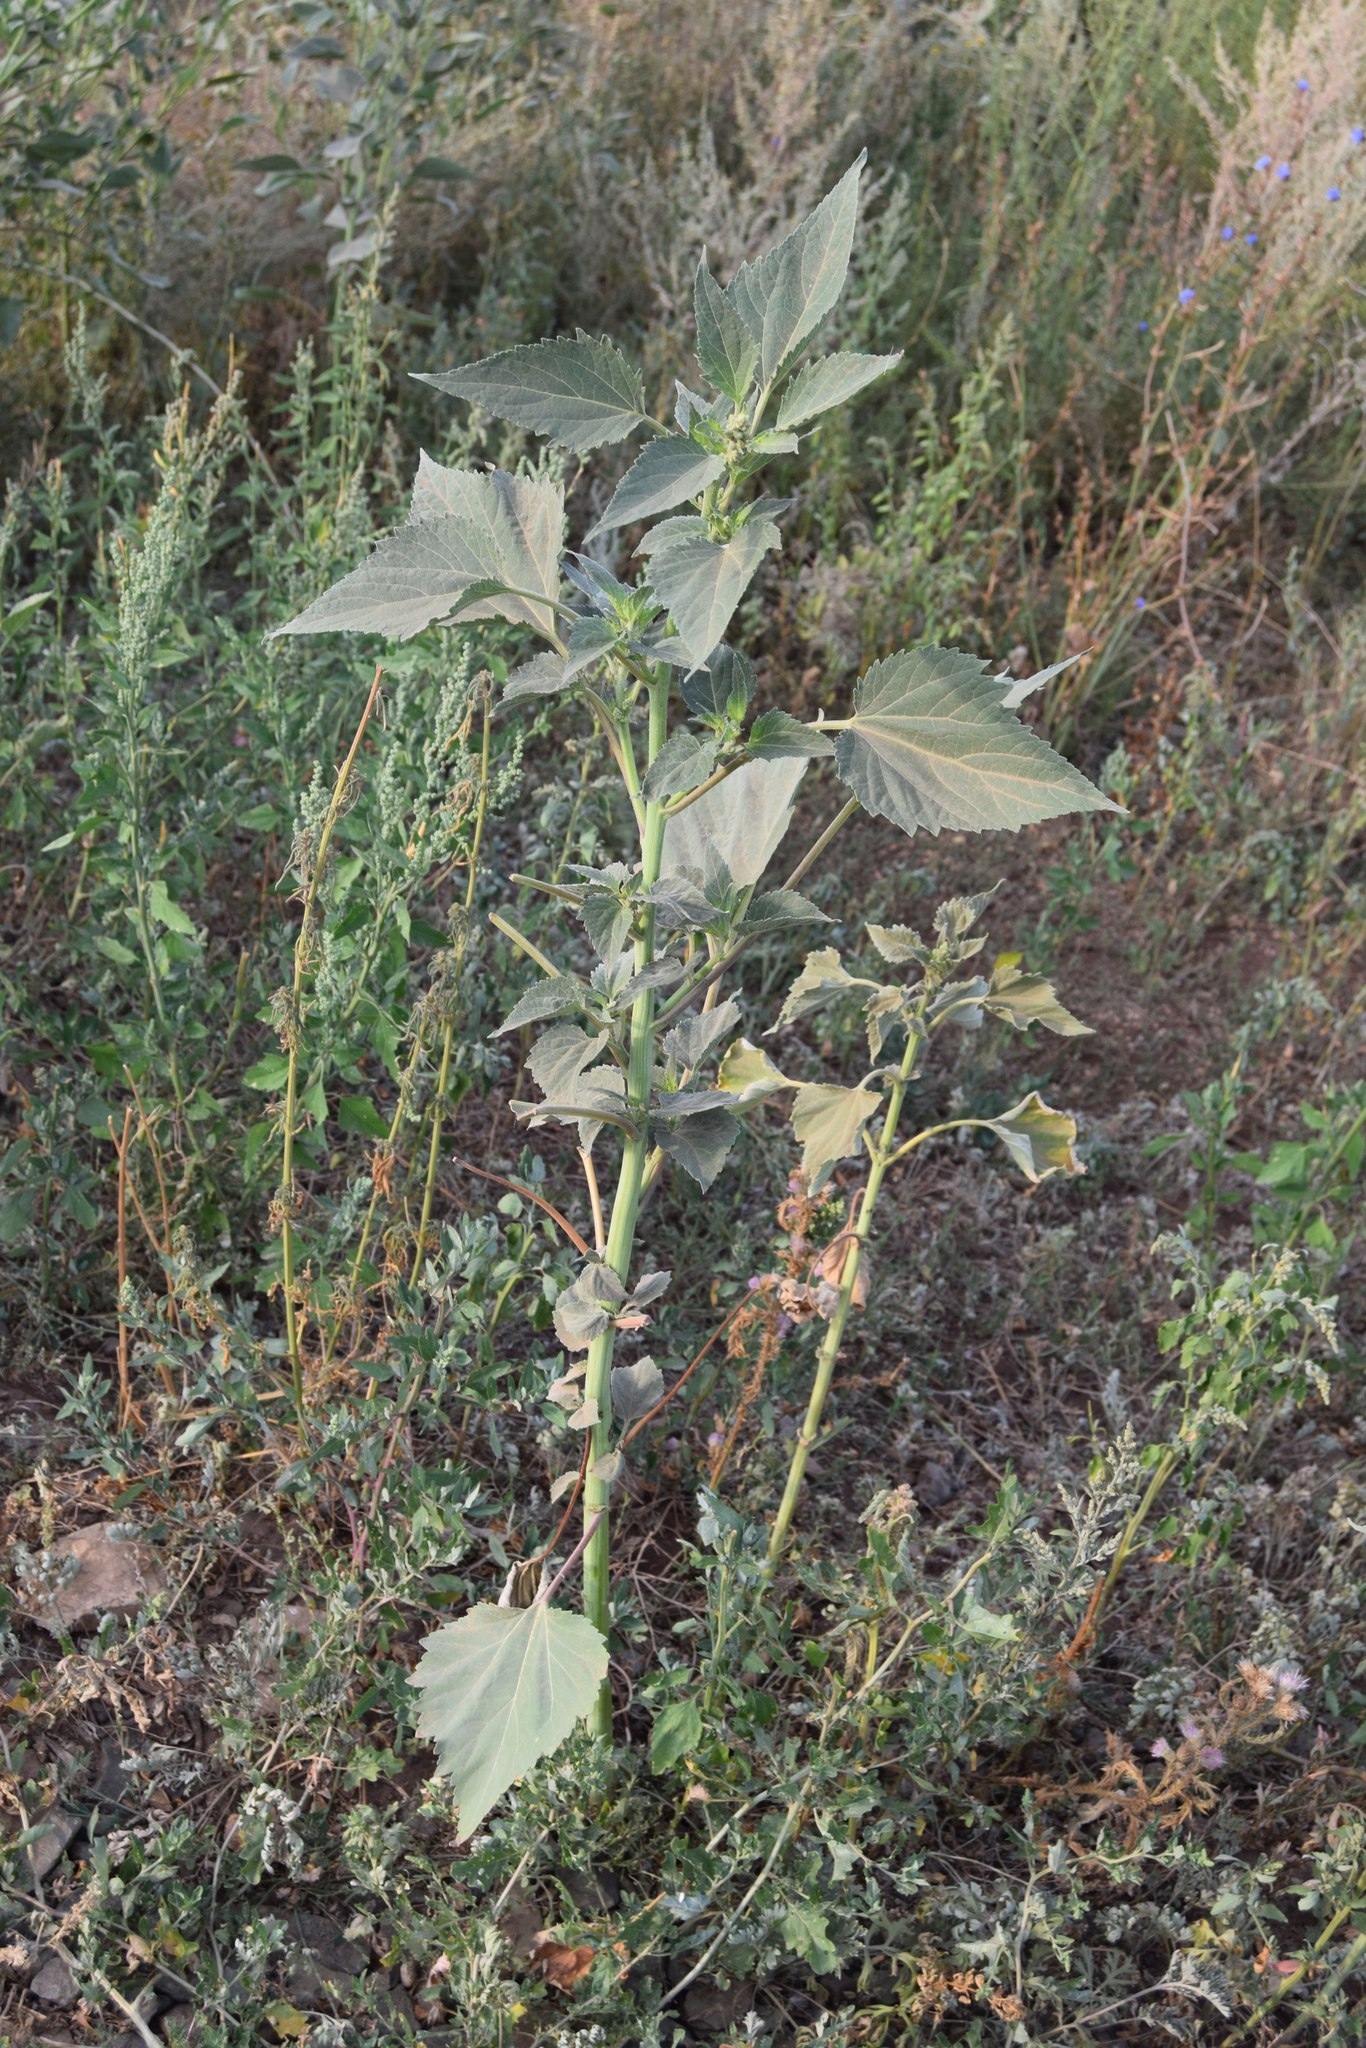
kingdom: Plantae
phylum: Tracheophyta
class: Magnoliopsida
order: Asterales
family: Asteraceae
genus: Cyclachaena
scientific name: Cyclachaena xanthiifolia
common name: Giant sumpweed
